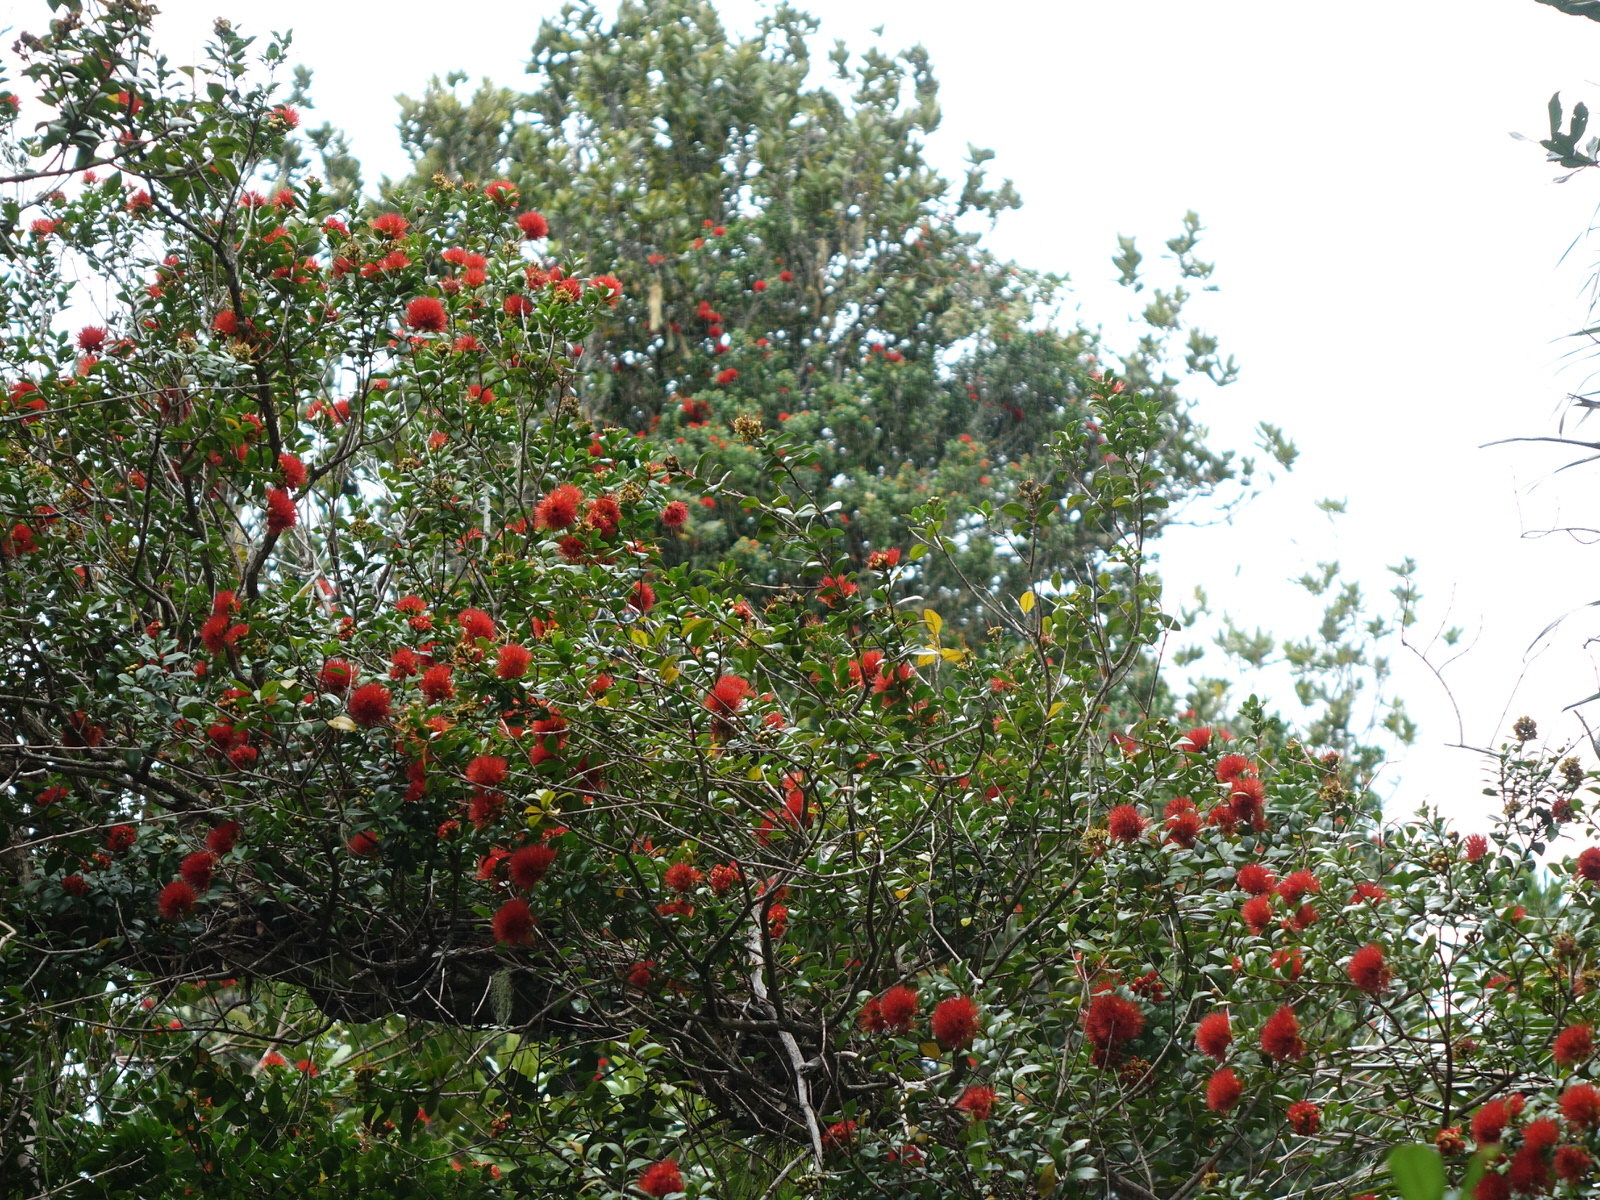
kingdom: Plantae
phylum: Tracheophyta
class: Magnoliopsida
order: Myrtales
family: Myrtaceae
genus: Metrosideros
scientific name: Metrosideros fulgens
